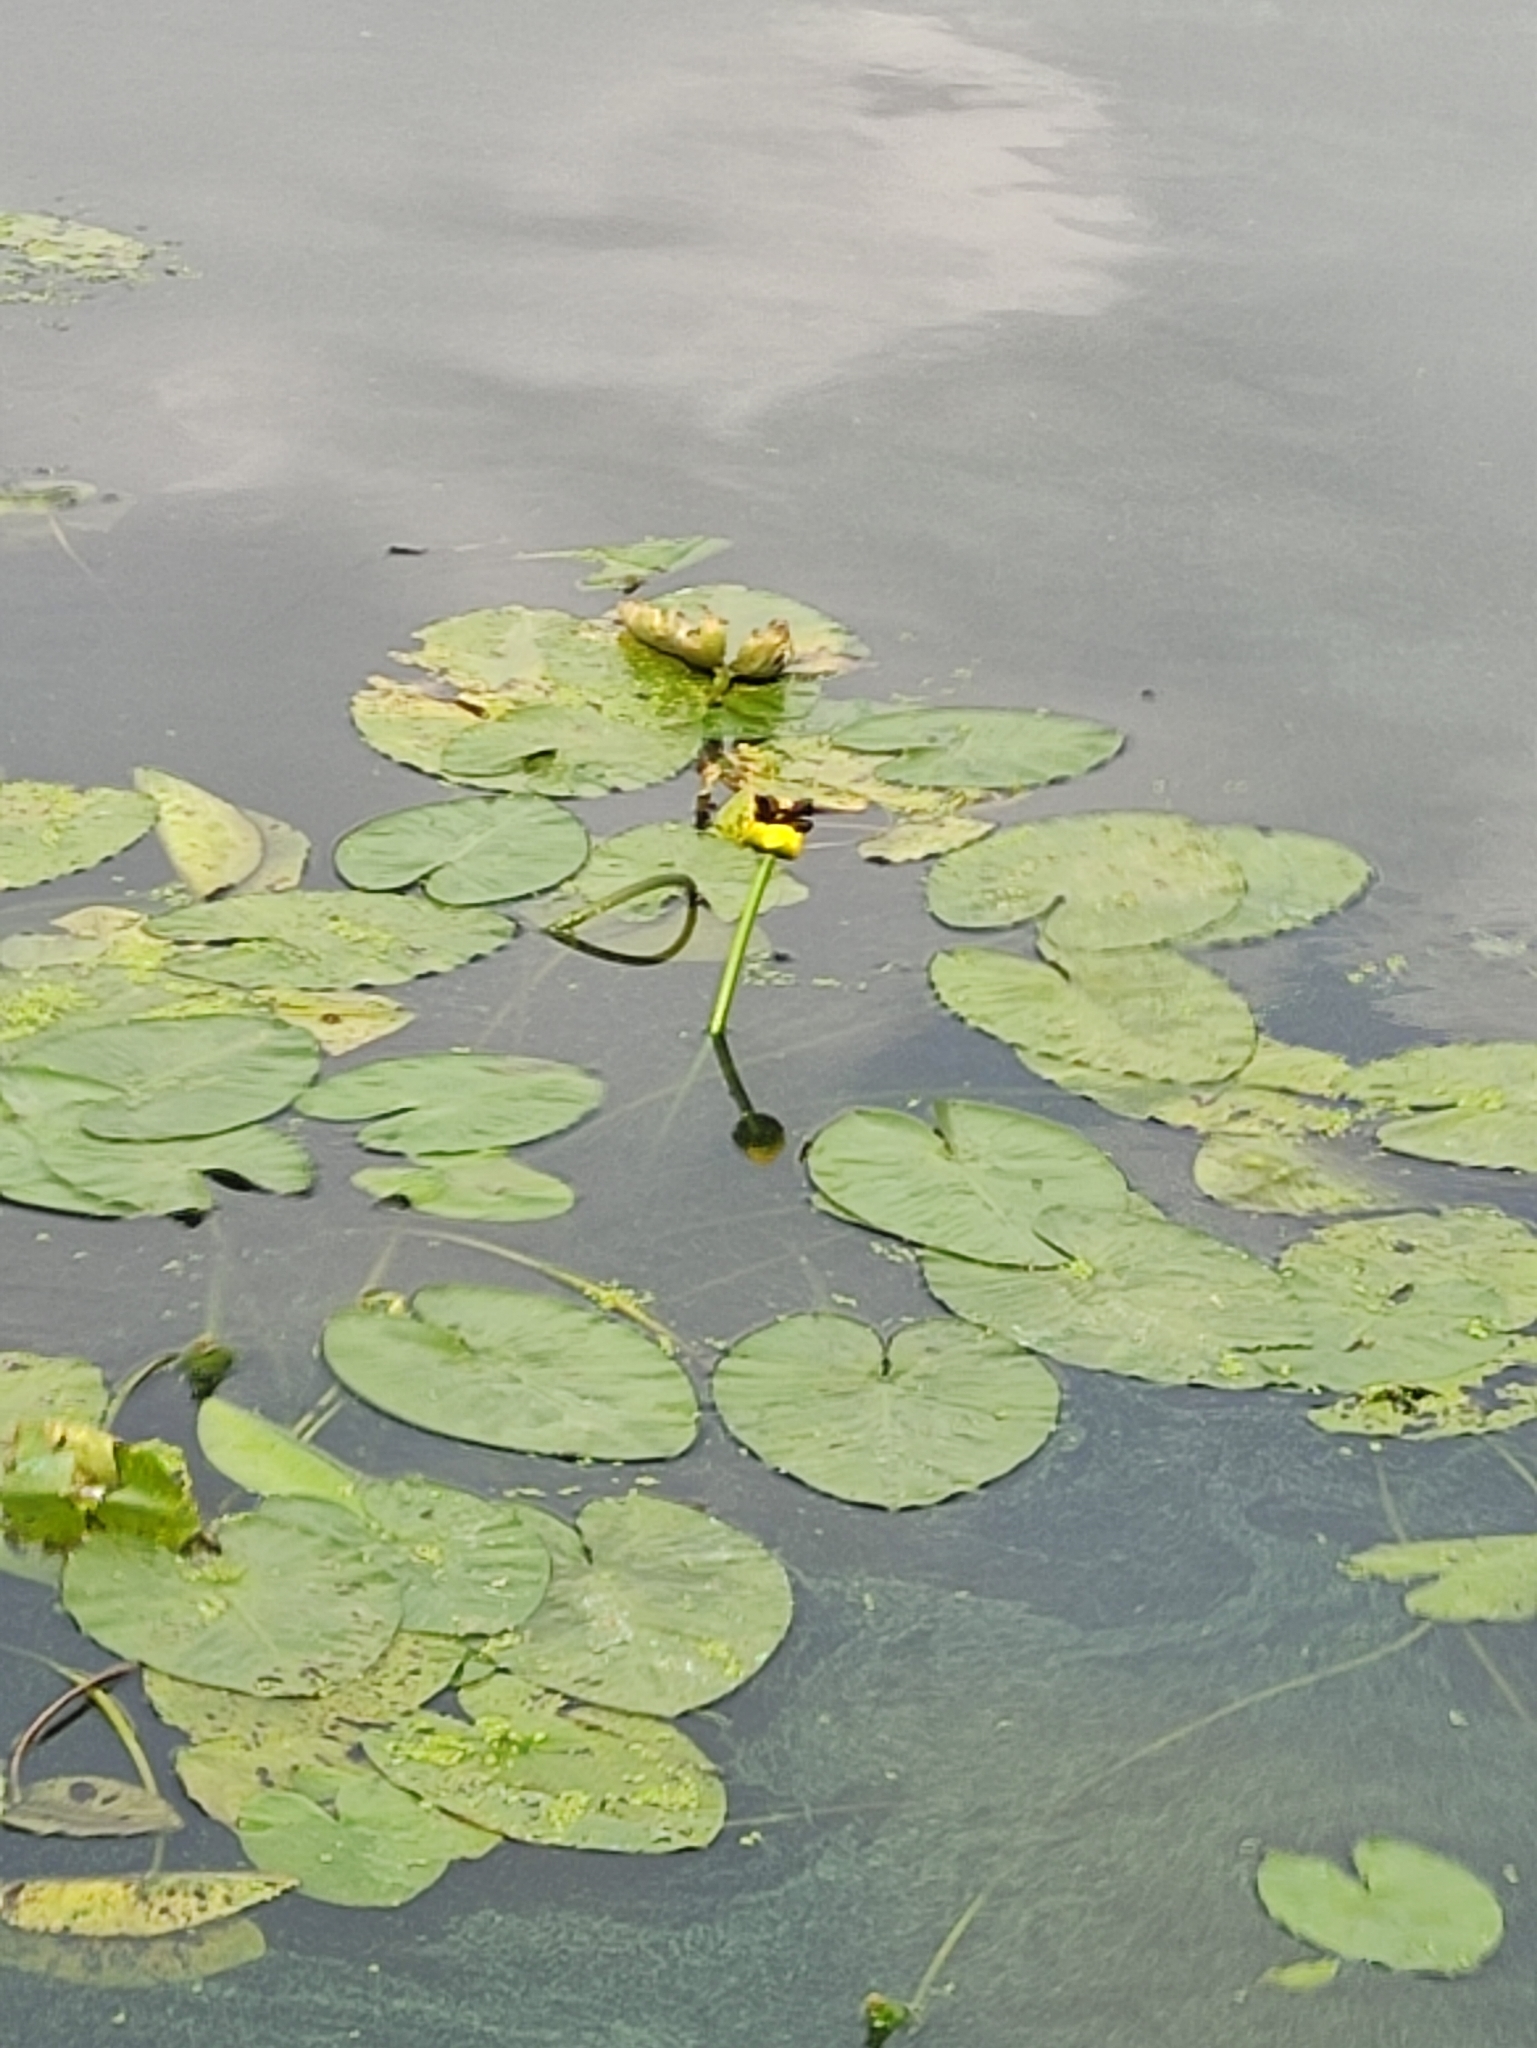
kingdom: Plantae
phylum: Tracheophyta
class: Magnoliopsida
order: Nymphaeales
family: Nymphaeaceae
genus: Nuphar
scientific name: Nuphar lutea
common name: Yellow water-lily
